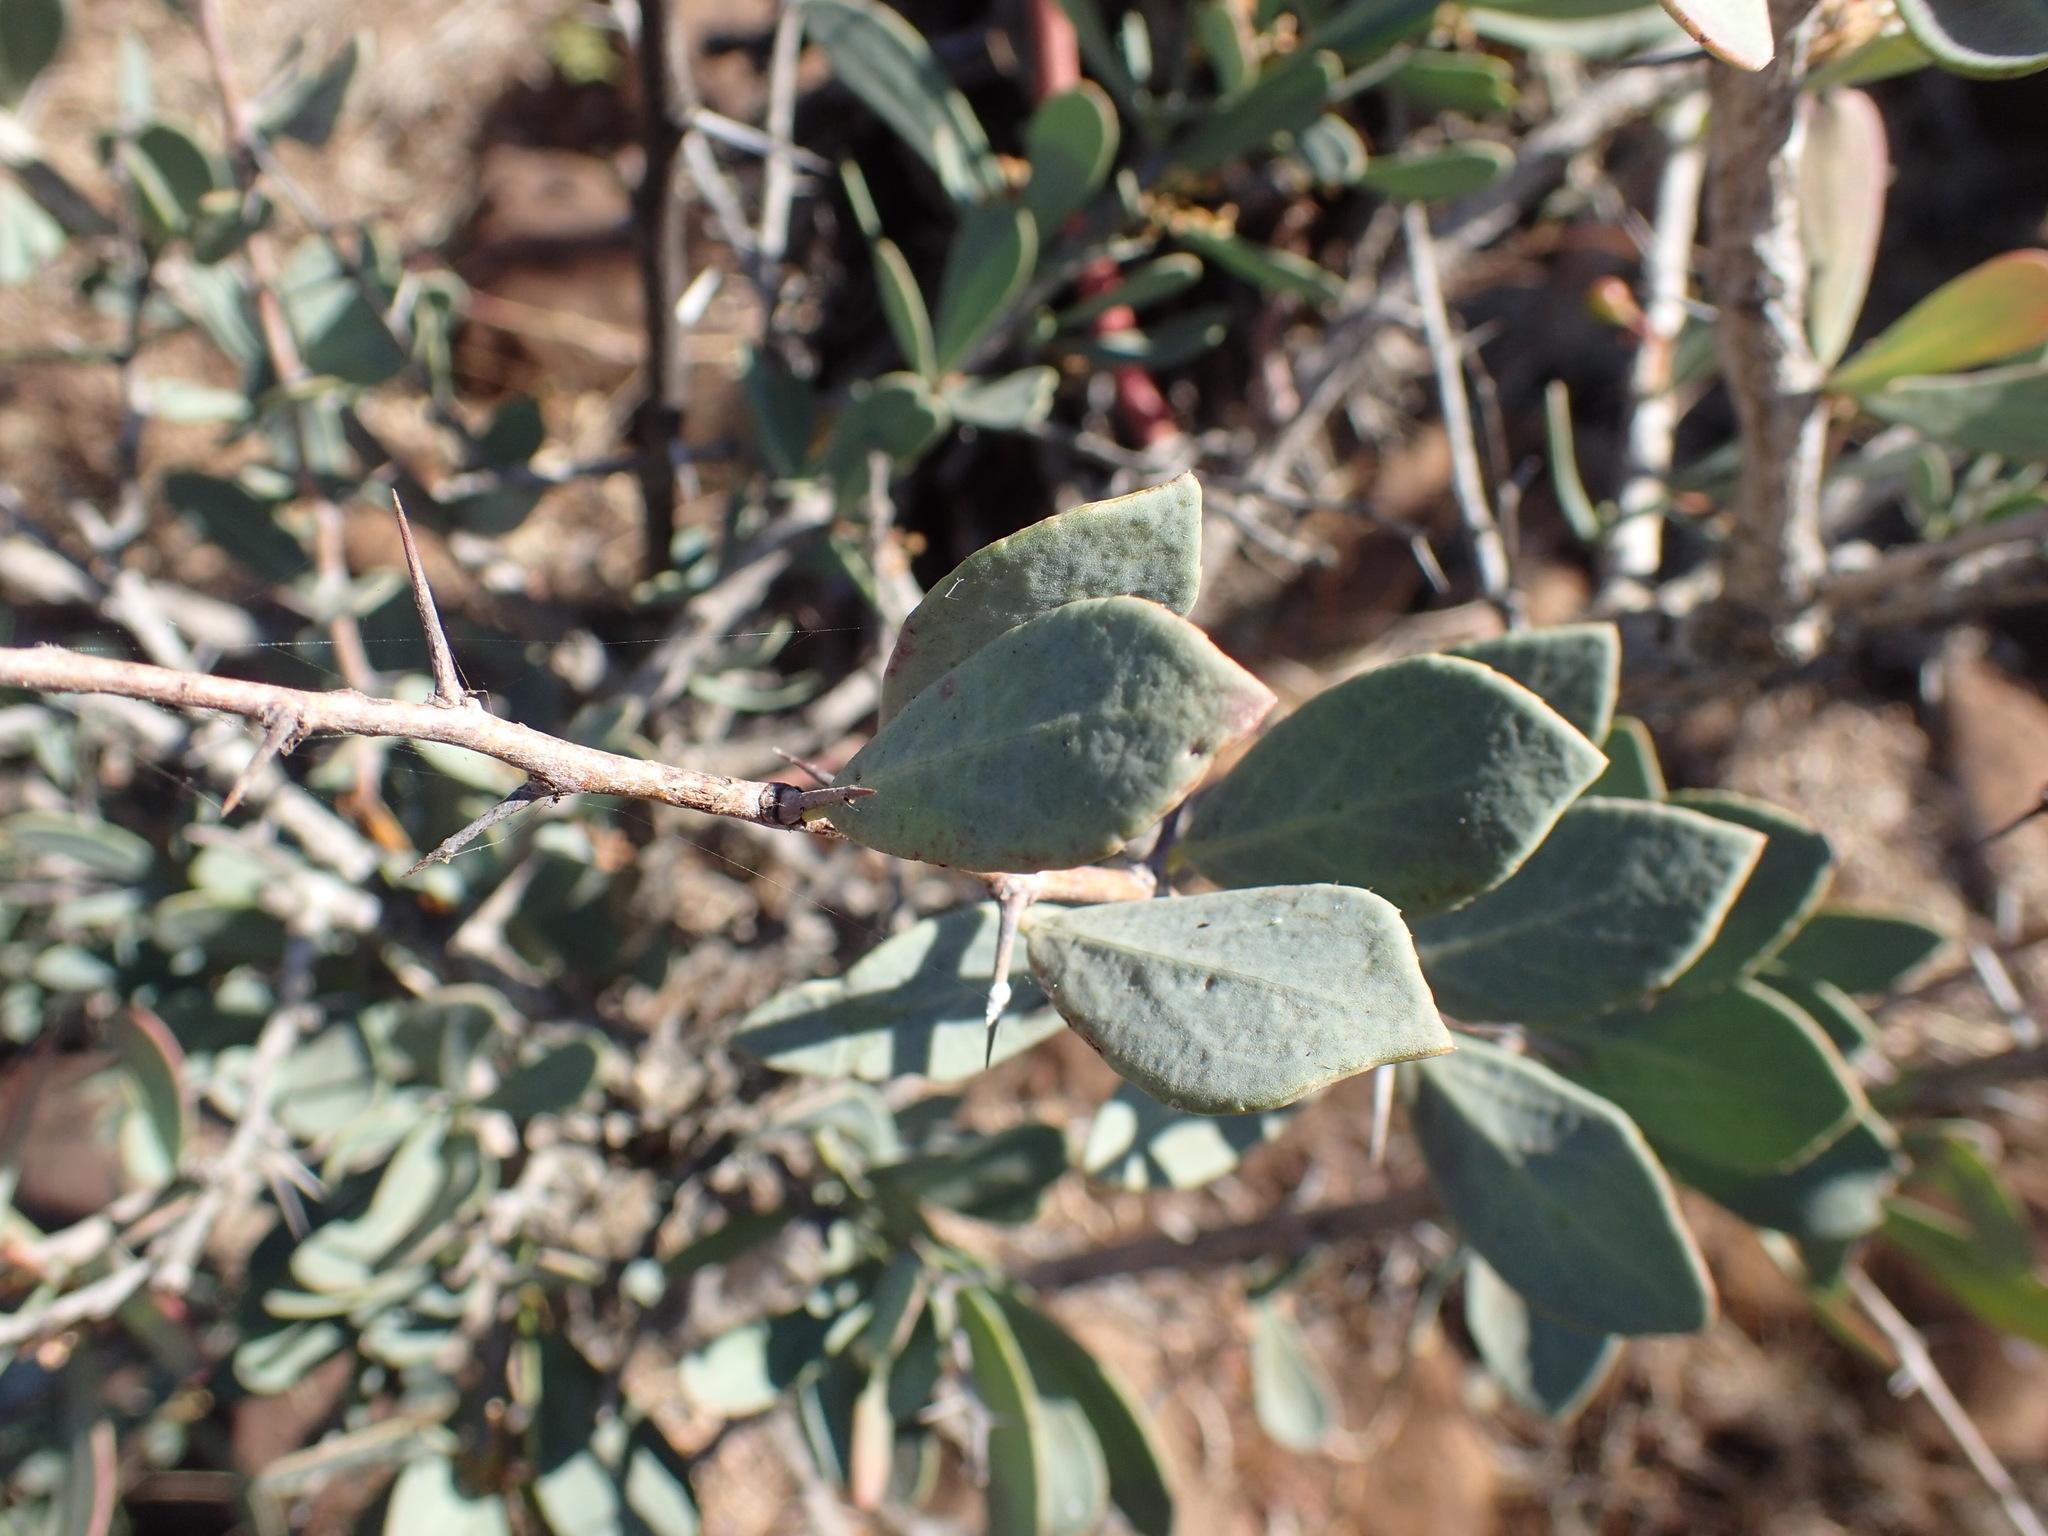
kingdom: Plantae
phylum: Tracheophyta
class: Magnoliopsida
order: Celastrales
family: Celastraceae
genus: Gymnosporia
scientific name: Gymnosporia glaucophylla
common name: Blue spike-thorn
